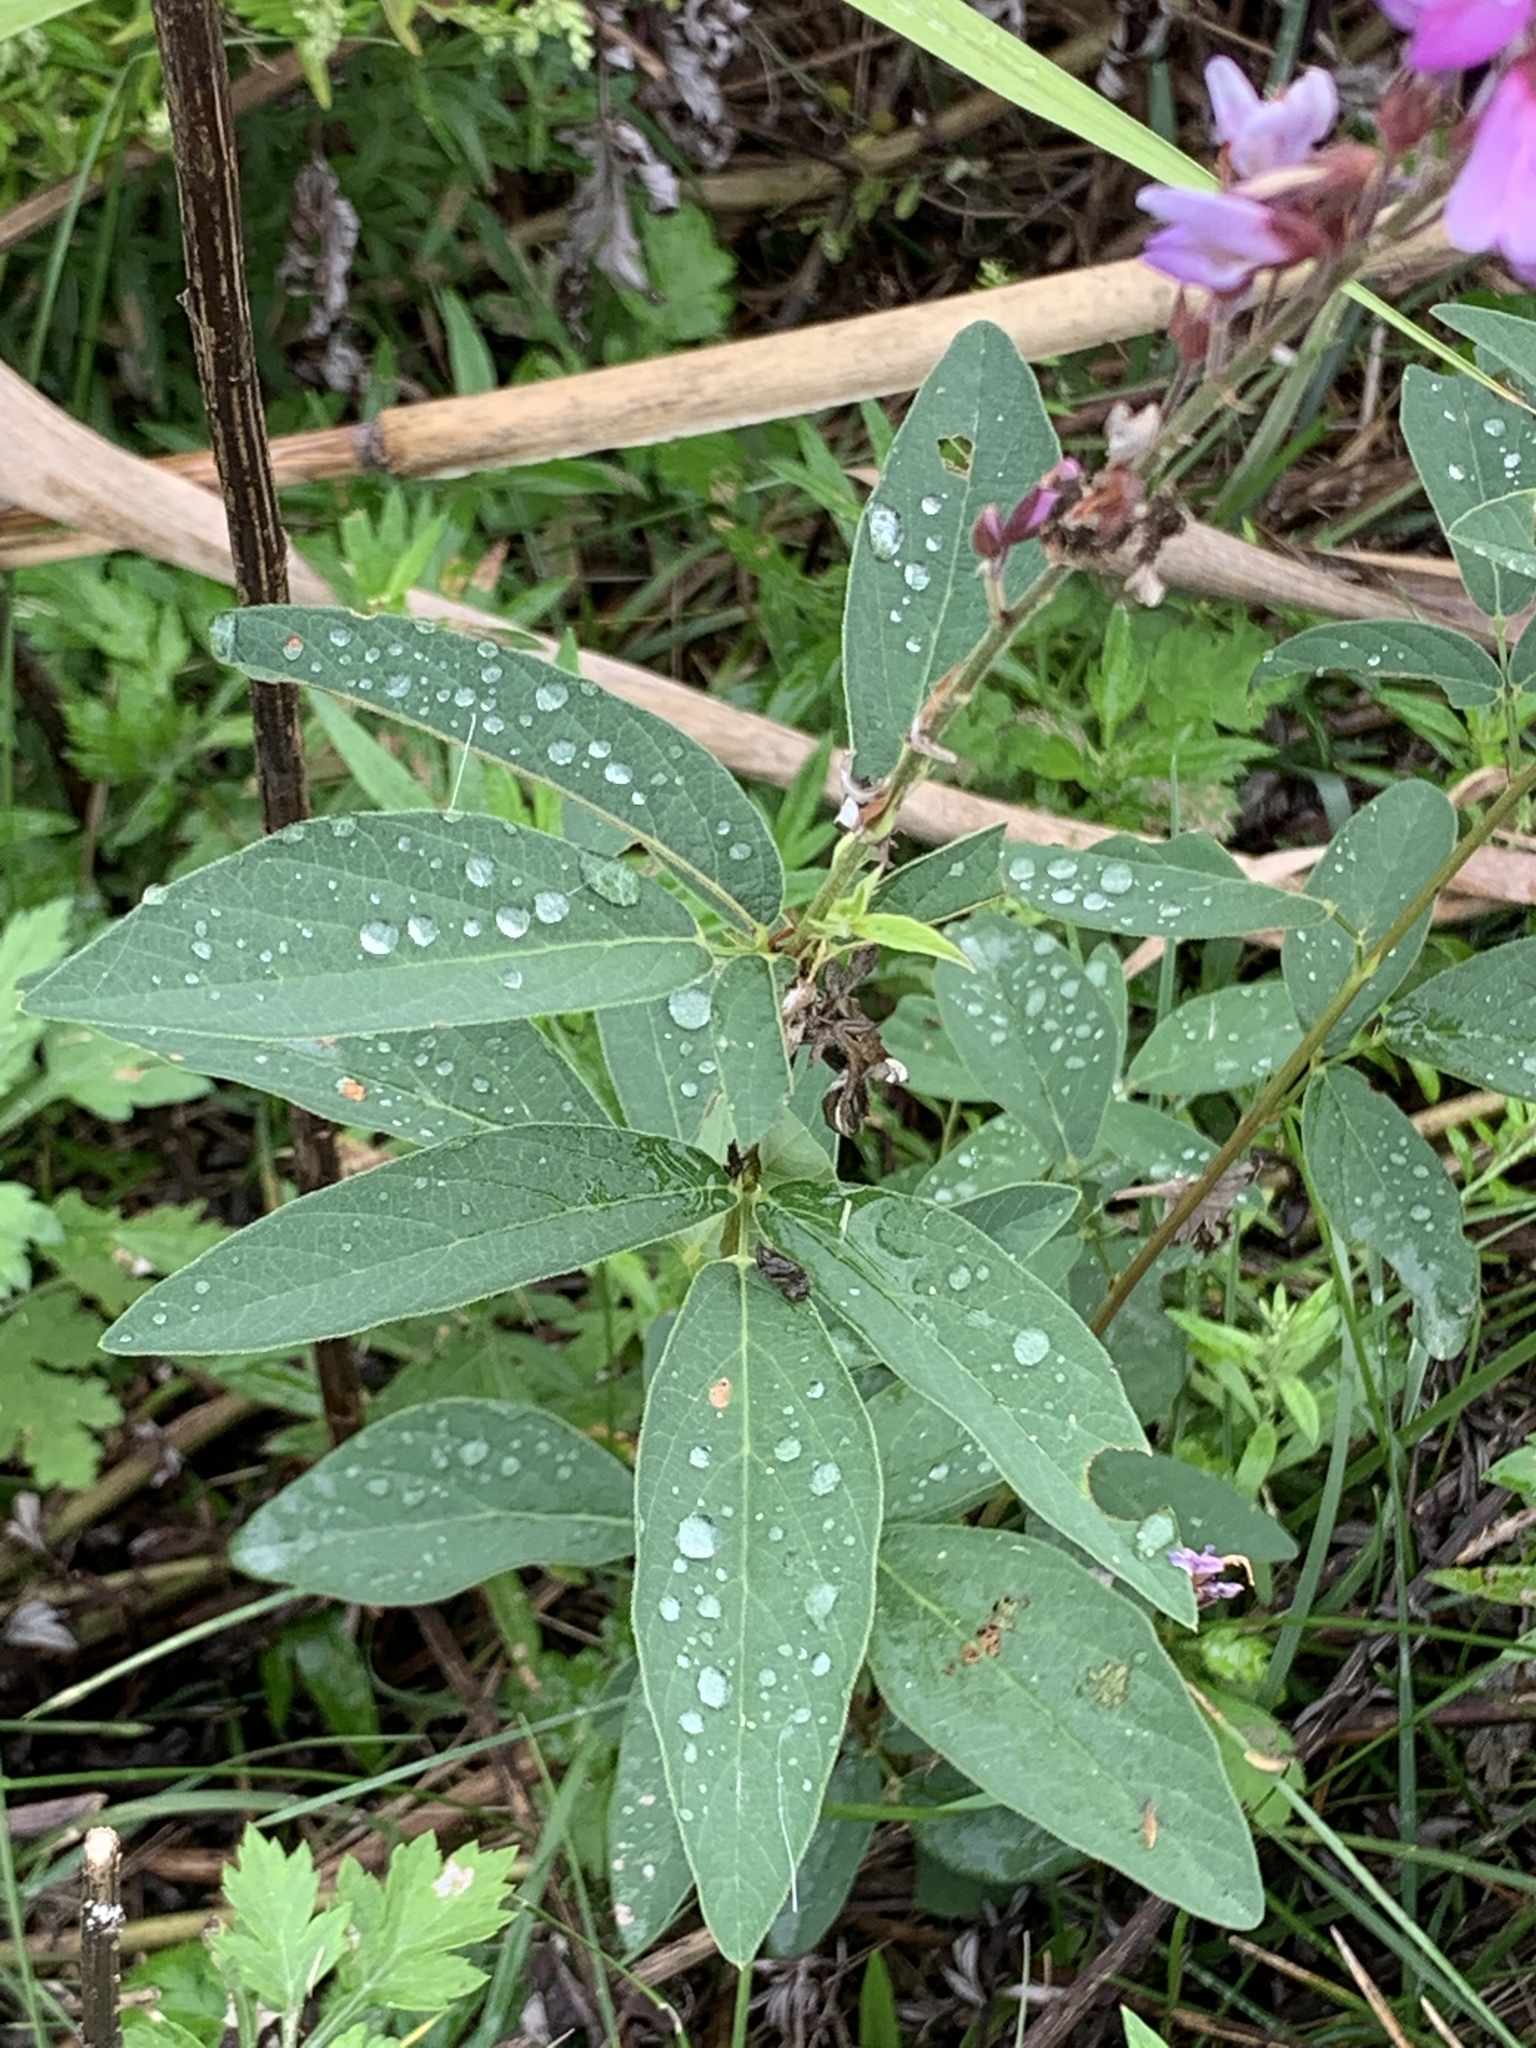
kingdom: Plantae
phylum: Tracheophyta
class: Magnoliopsida
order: Fabales
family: Fabaceae
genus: Desmodium
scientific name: Desmodium canadense
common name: Canada tick-trefoil
